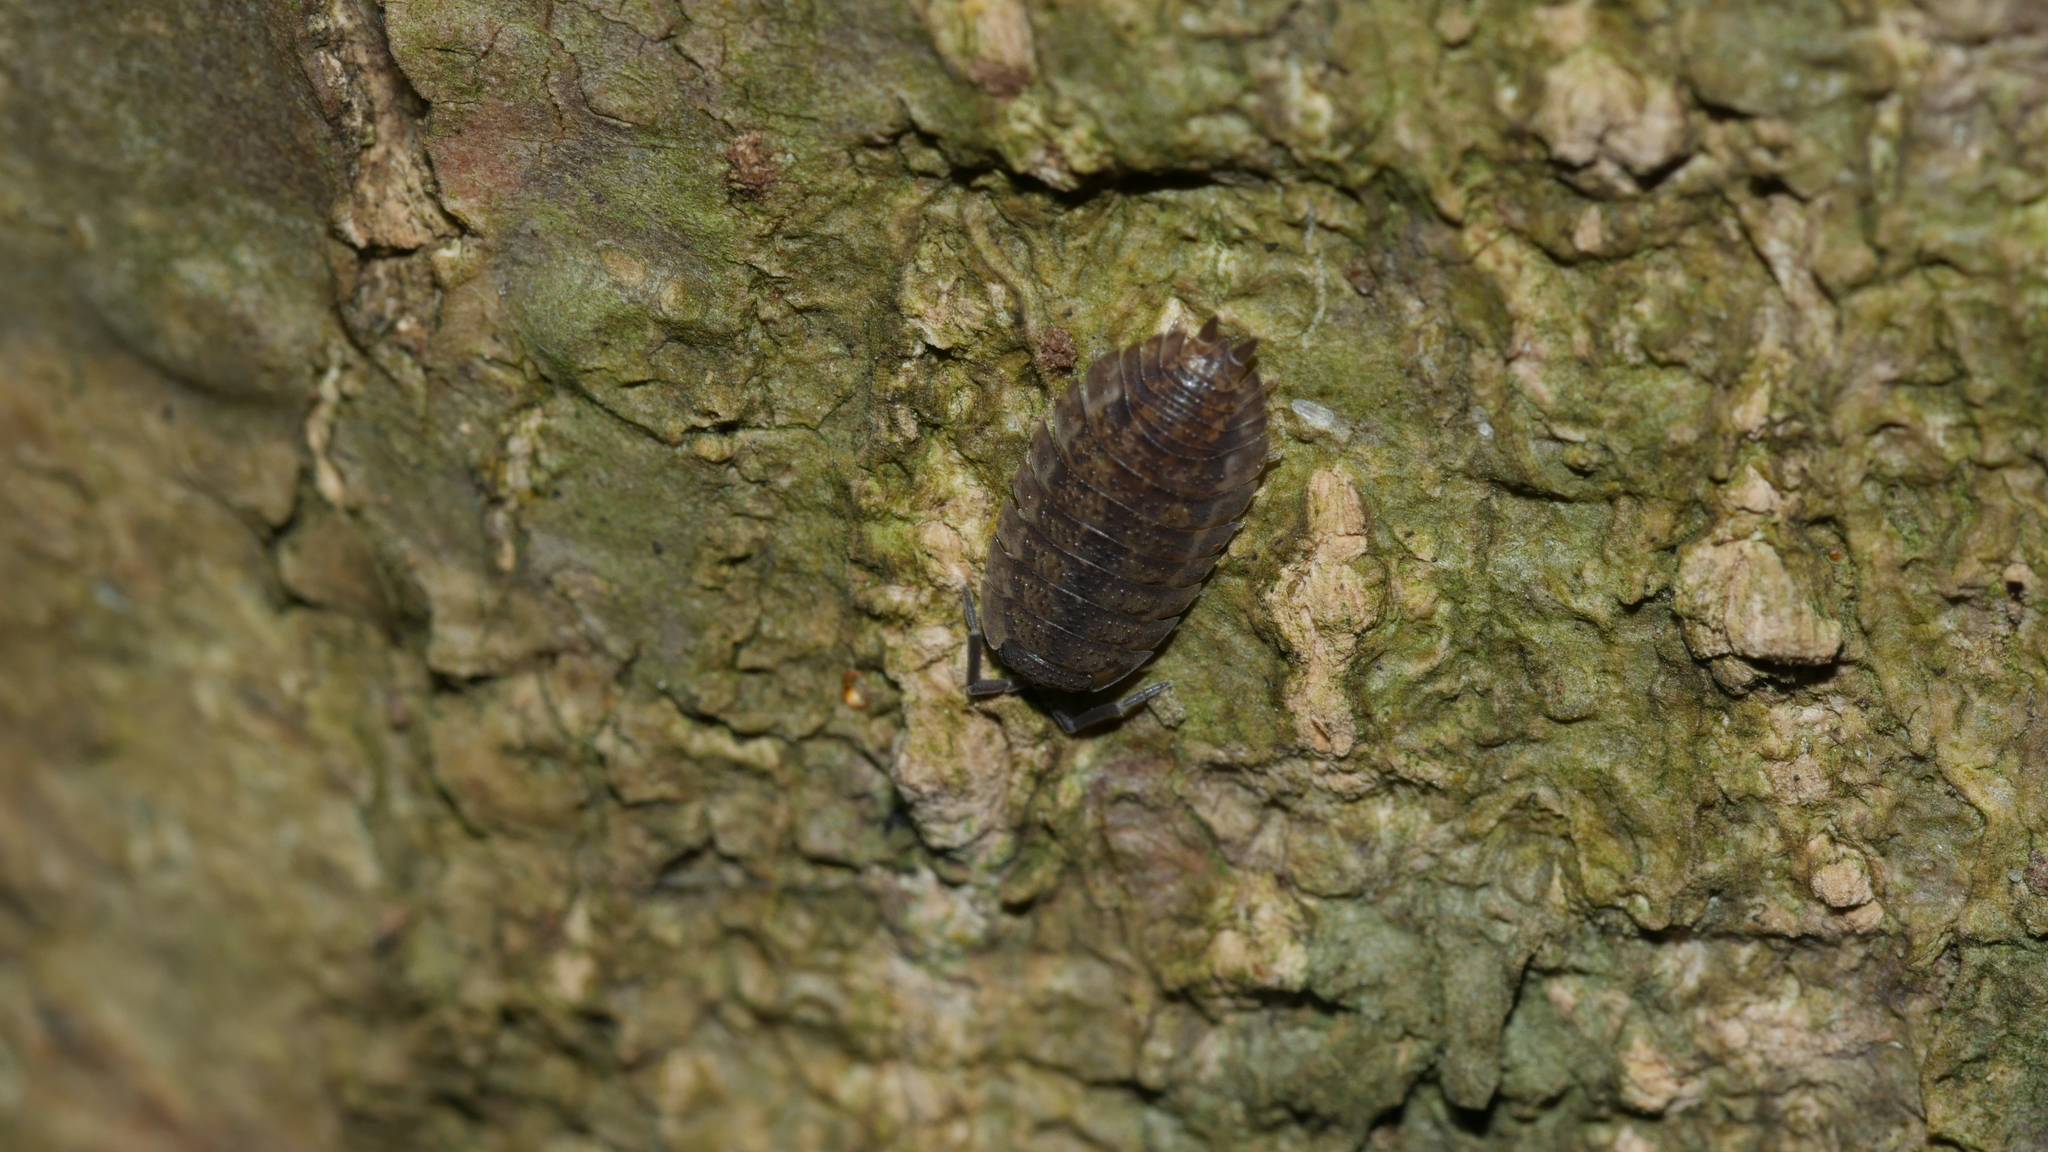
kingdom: Animalia
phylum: Arthropoda
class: Malacostraca
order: Isopoda
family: Porcellionidae
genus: Porcellio
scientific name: Porcellio scaber
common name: Common rough woodlouse
